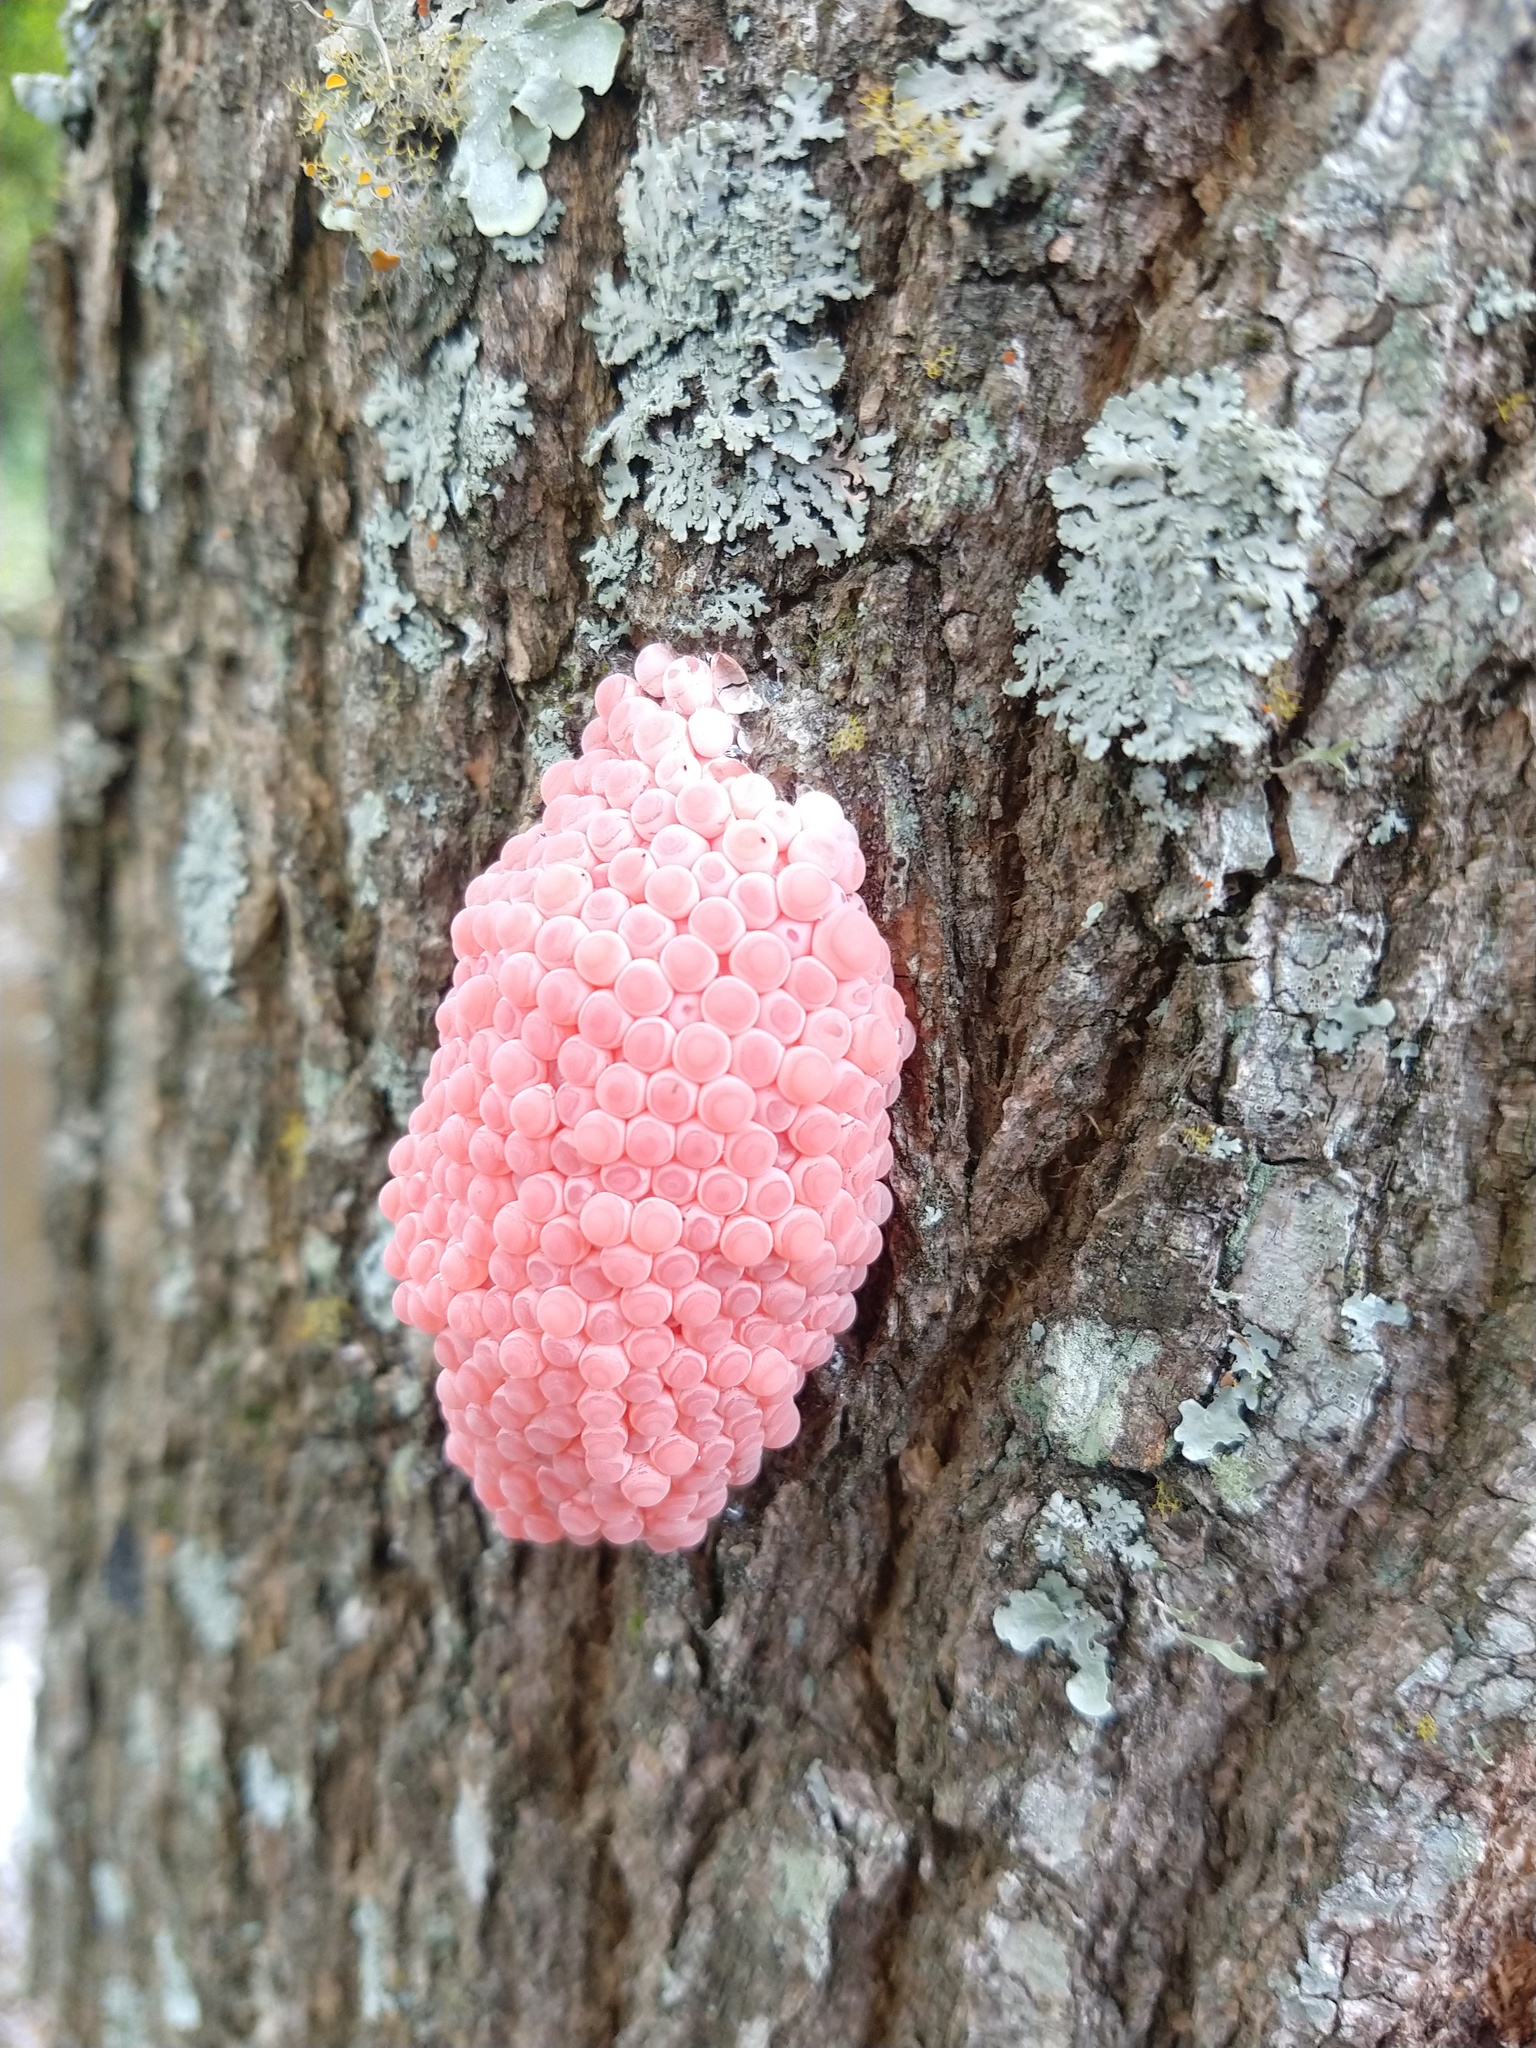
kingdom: Animalia
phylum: Mollusca
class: Gastropoda
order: Architaenioglossa
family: Ampullariidae
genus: Pomacea
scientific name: Pomacea canaliculata
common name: Channeled applesnail
